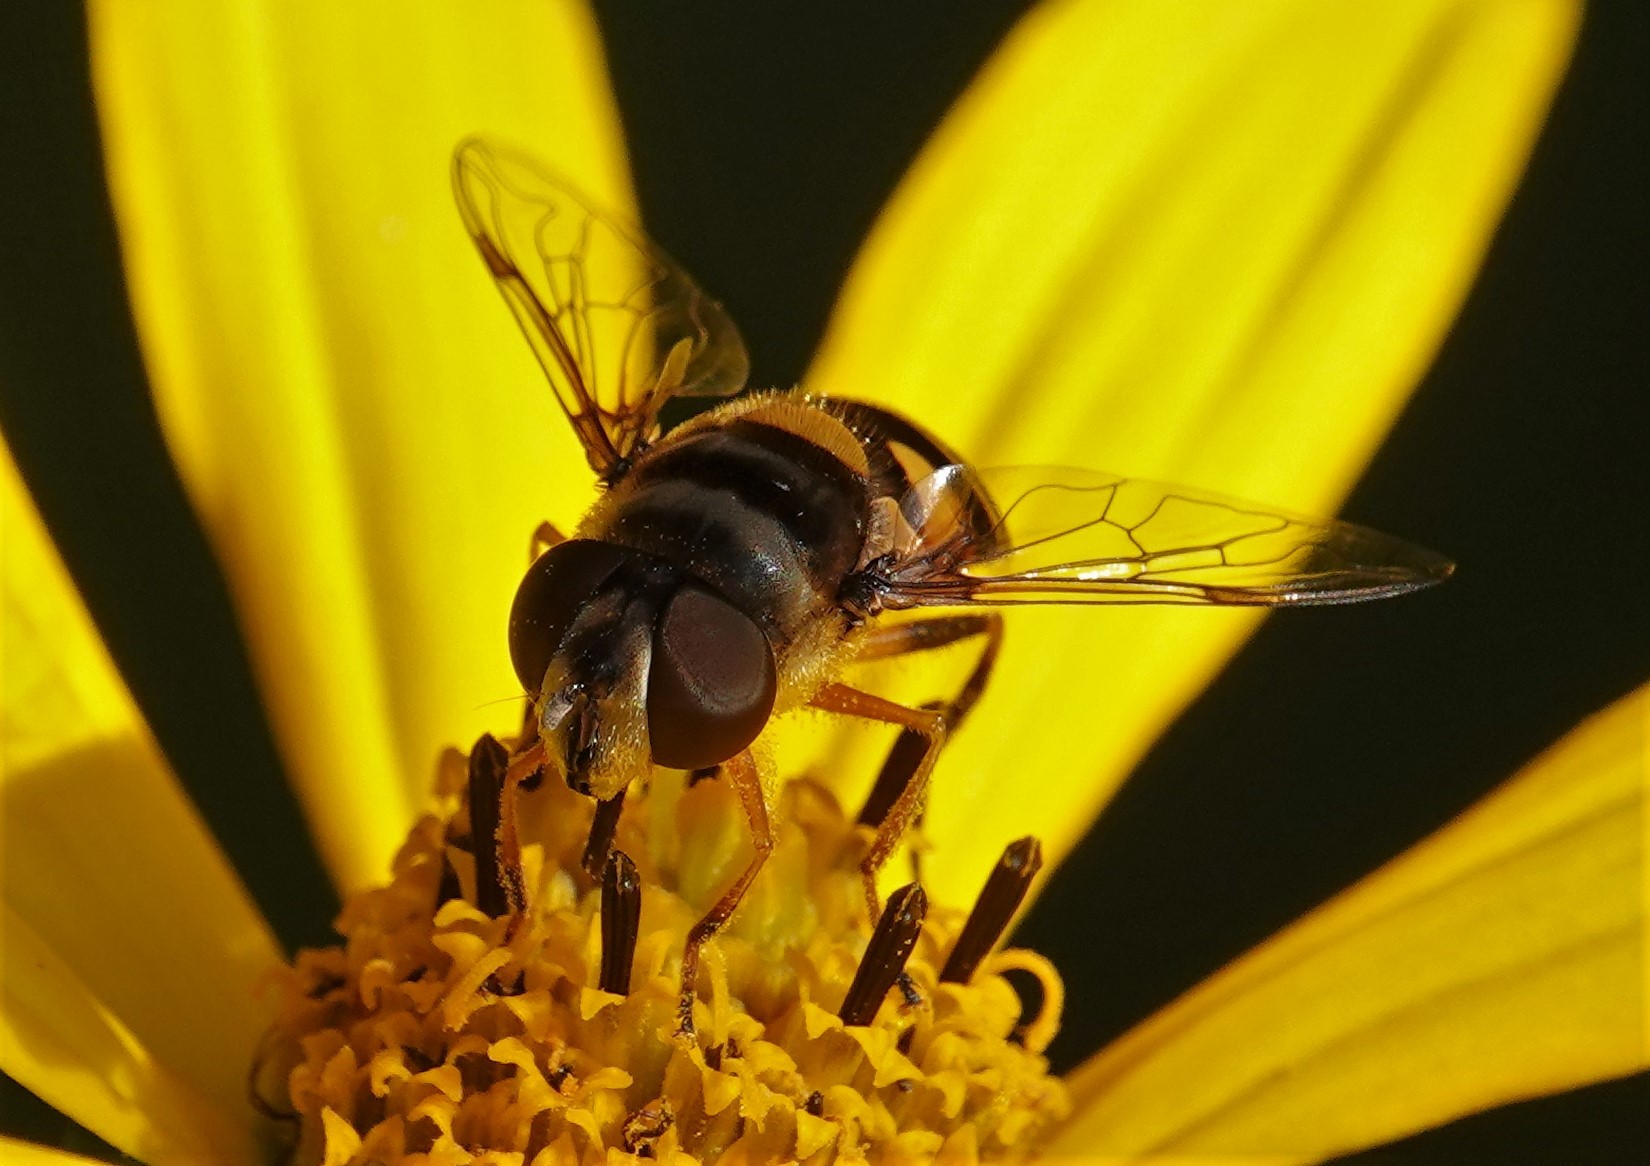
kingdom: Animalia
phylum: Arthropoda
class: Insecta
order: Diptera
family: Syrphidae
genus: Eristalis
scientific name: Eristalis transversa
